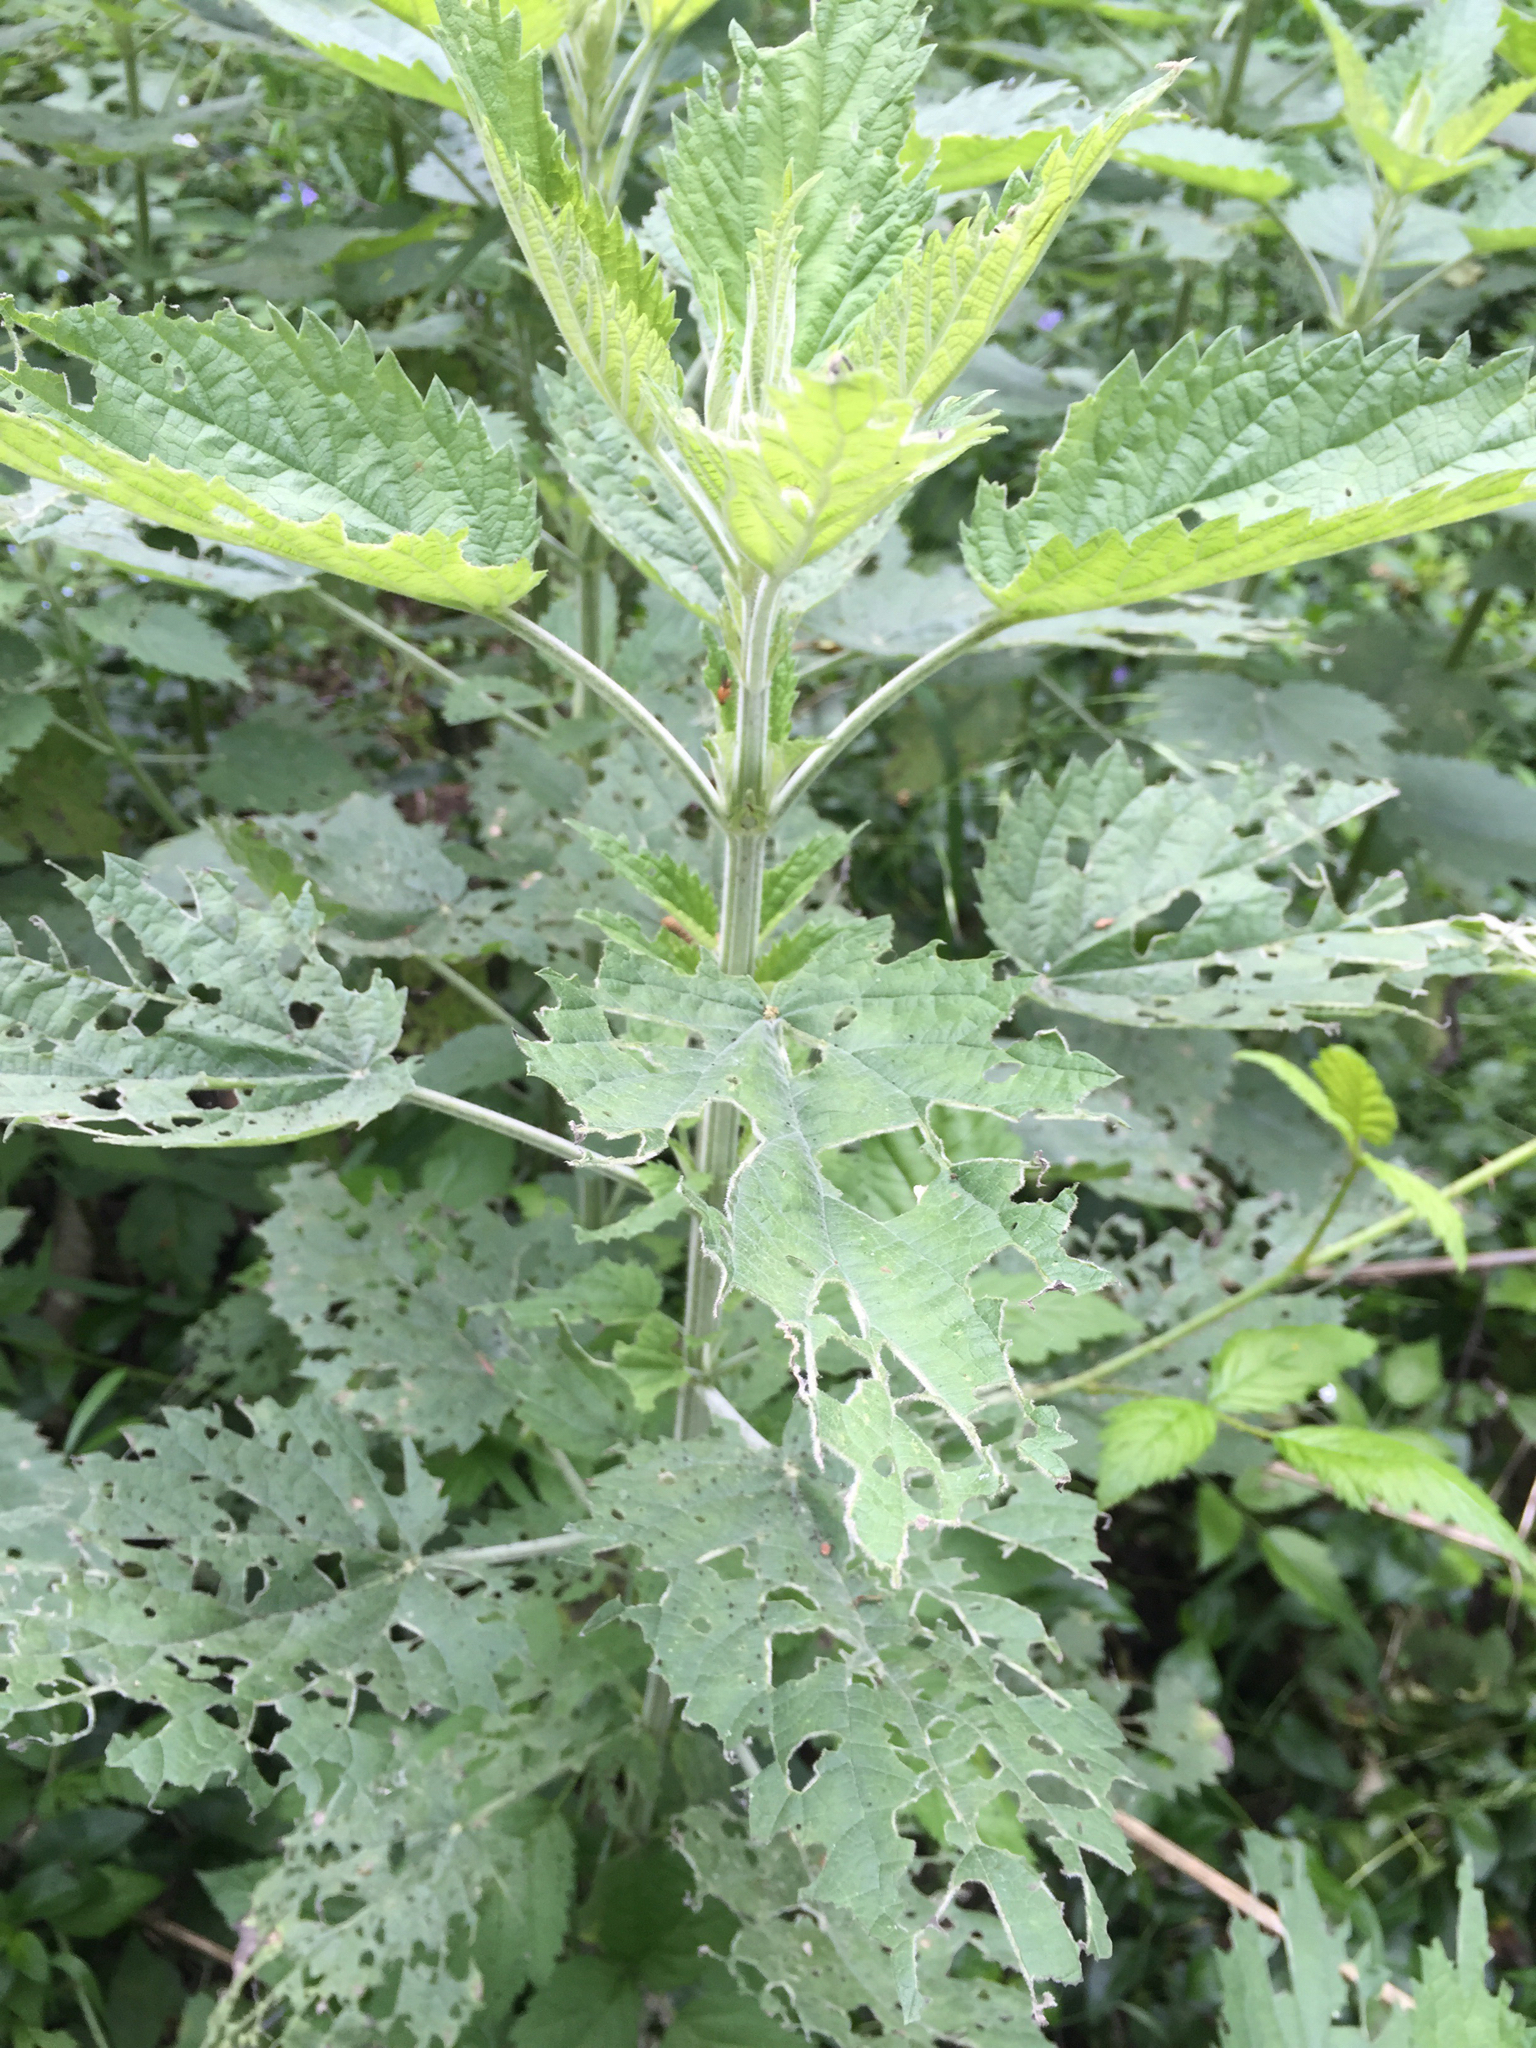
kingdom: Plantae
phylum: Tracheophyta
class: Magnoliopsida
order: Rosales
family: Urticaceae
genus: Urtica
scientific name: Urtica dioica
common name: Common nettle
